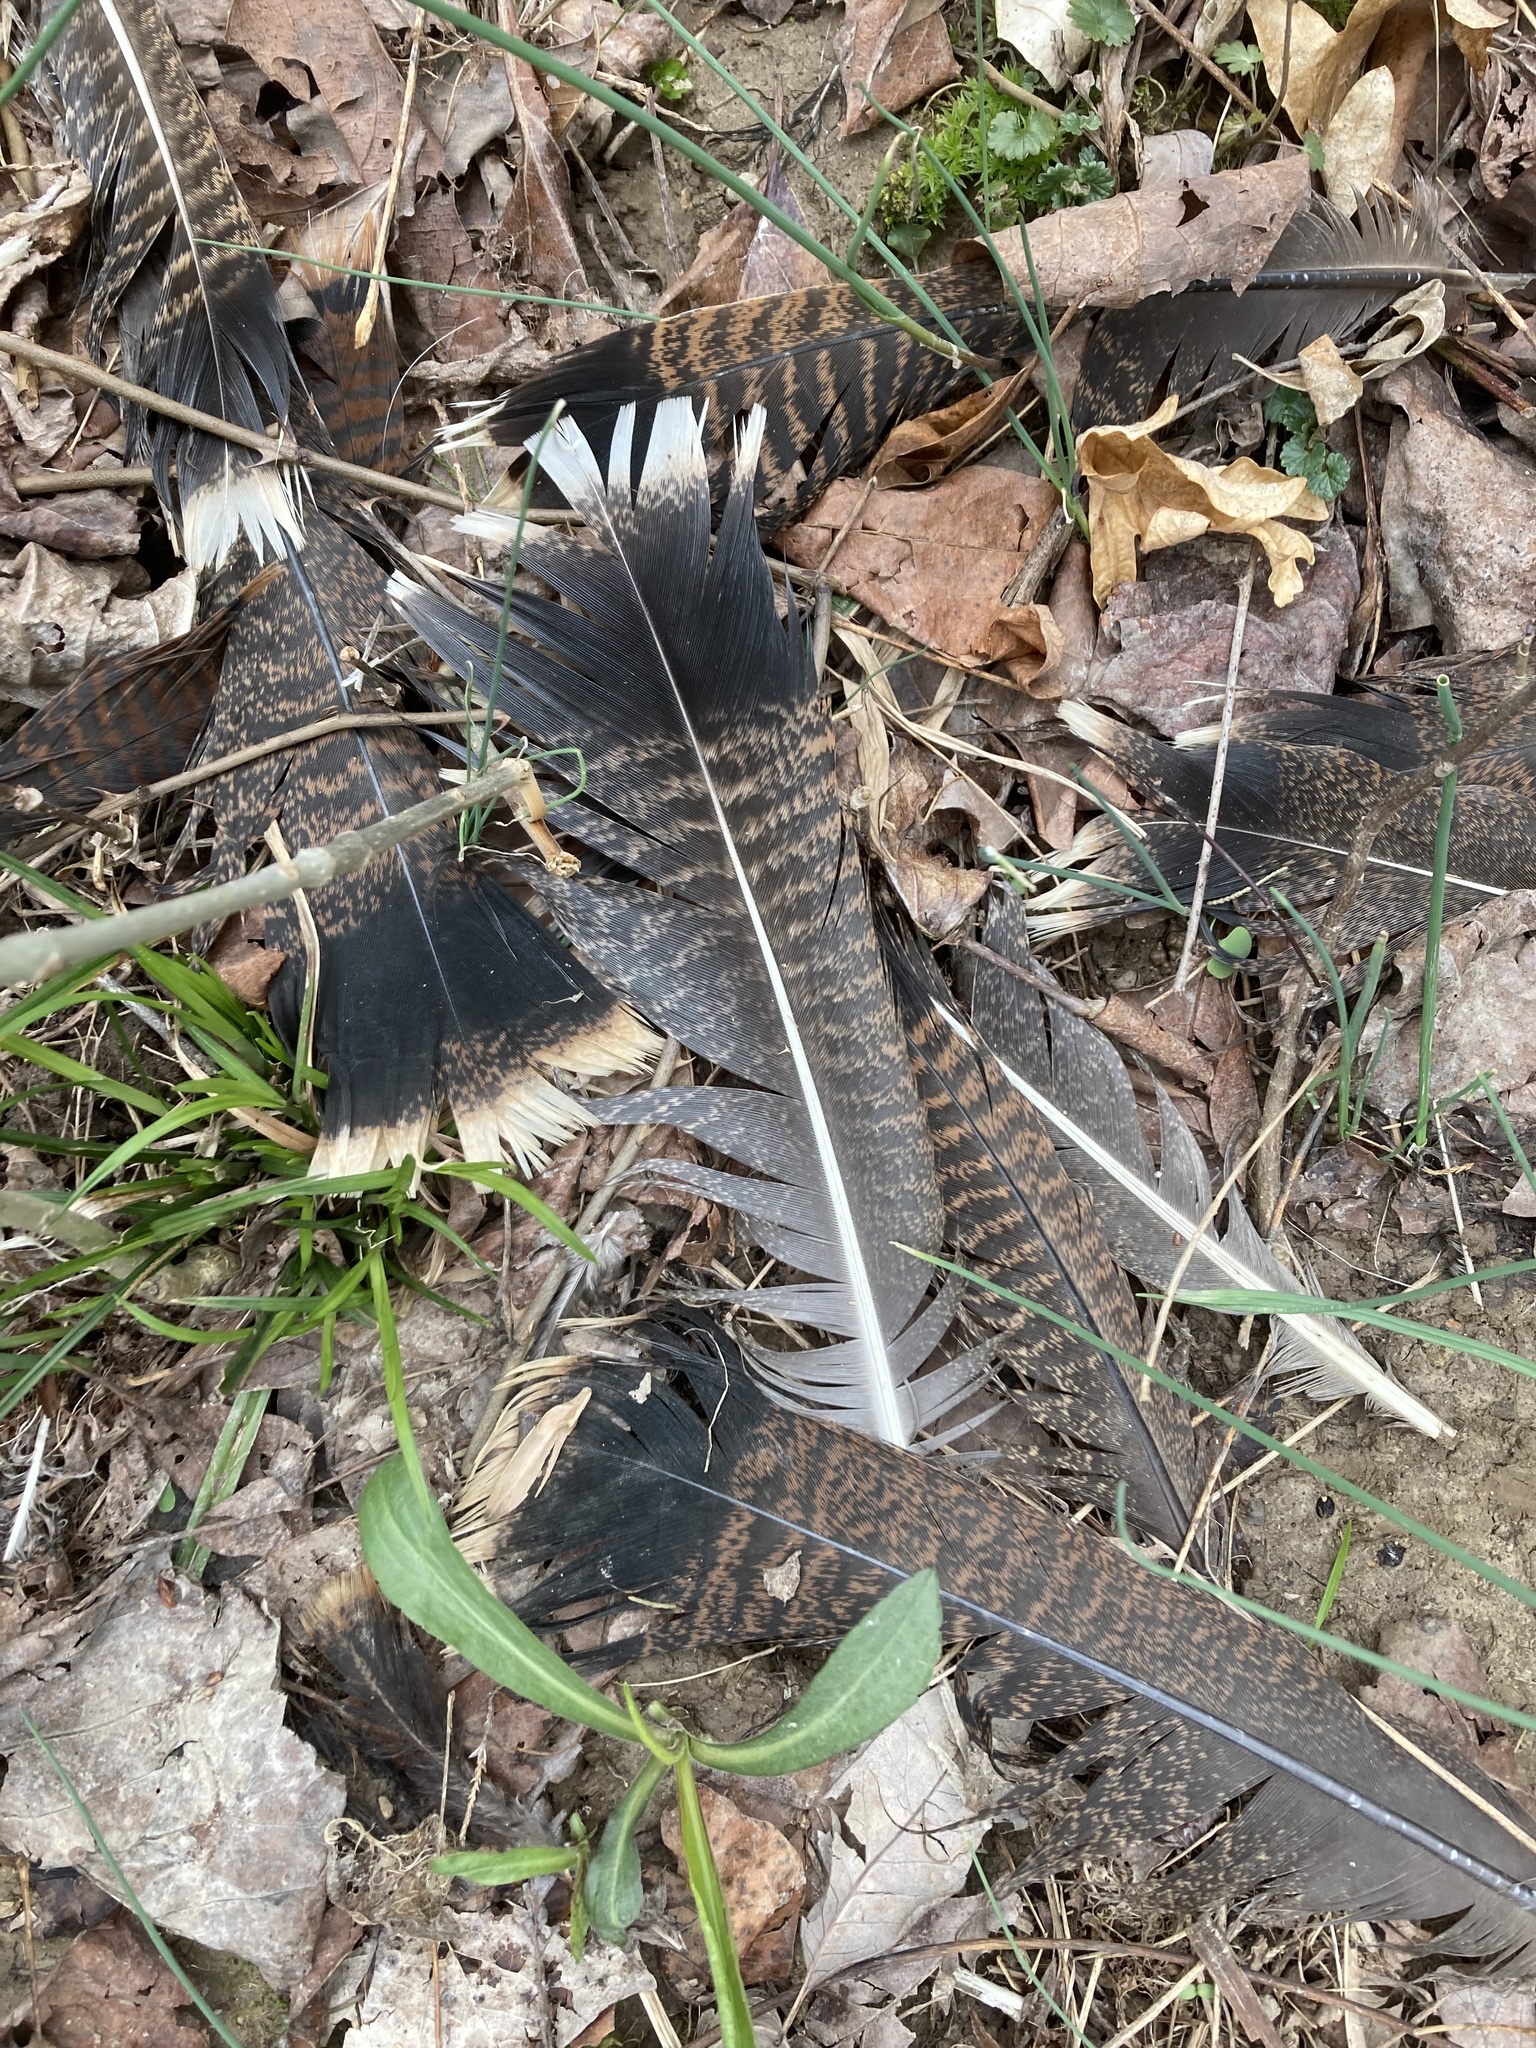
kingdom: Animalia
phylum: Chordata
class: Aves
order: Galliformes
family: Phasianidae
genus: Meleagris
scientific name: Meleagris gallopavo
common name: Wild turkey
